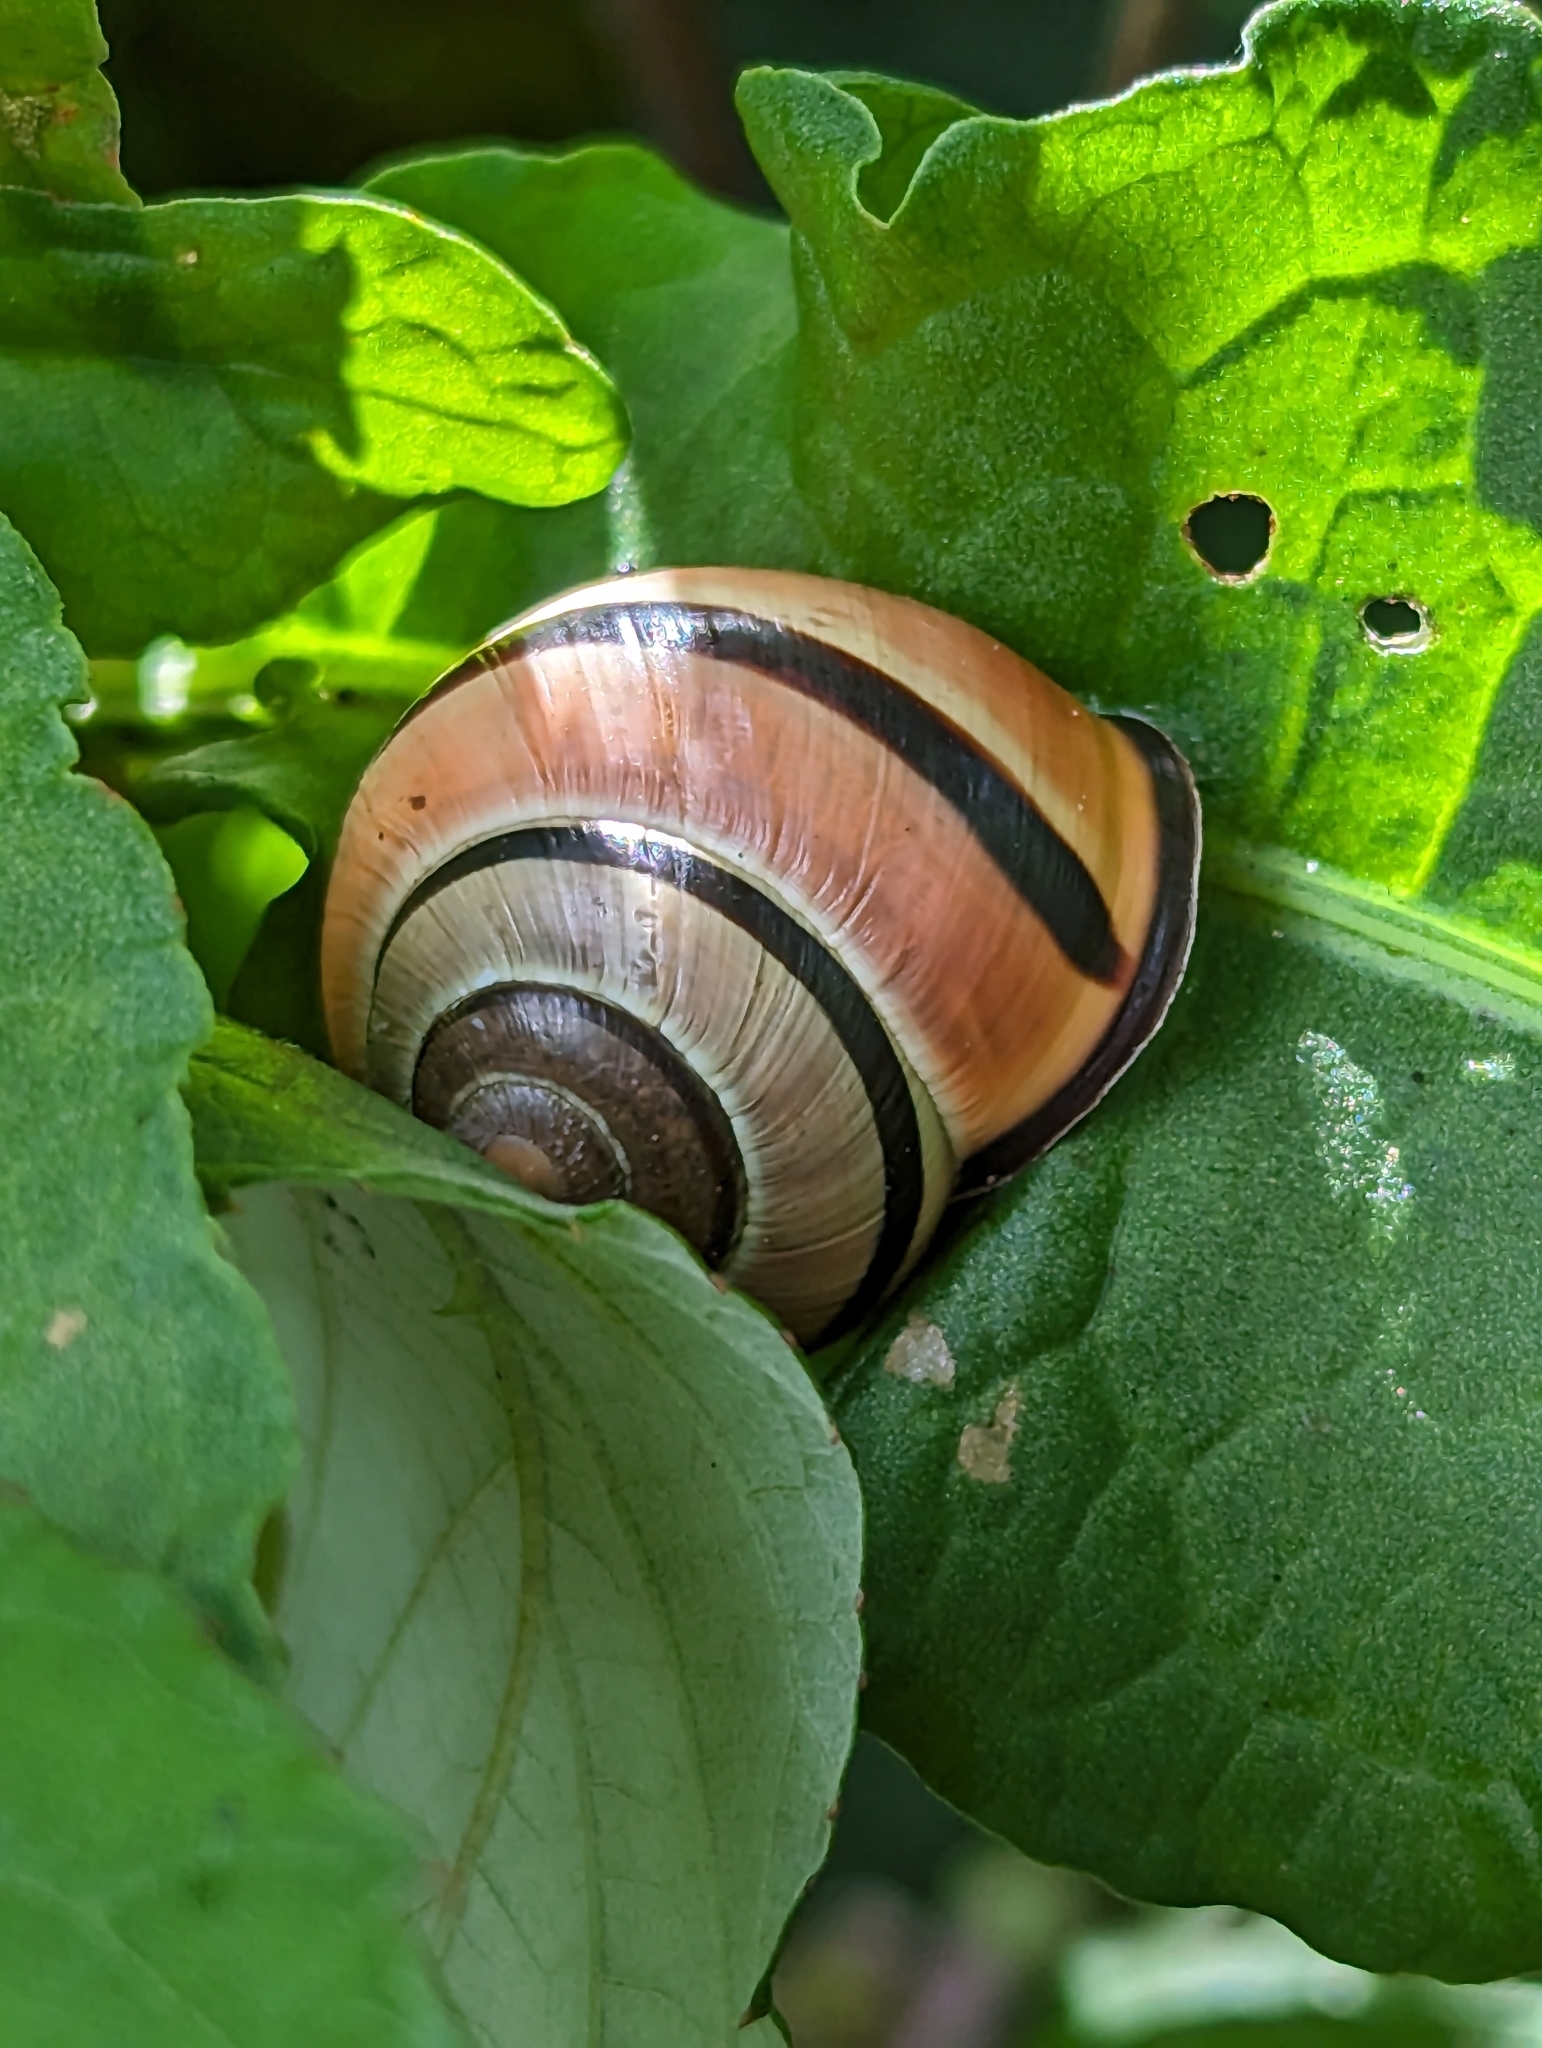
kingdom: Animalia
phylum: Mollusca
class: Gastropoda
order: Stylommatophora
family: Helicidae
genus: Cepaea
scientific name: Cepaea nemoralis
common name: Grovesnail
